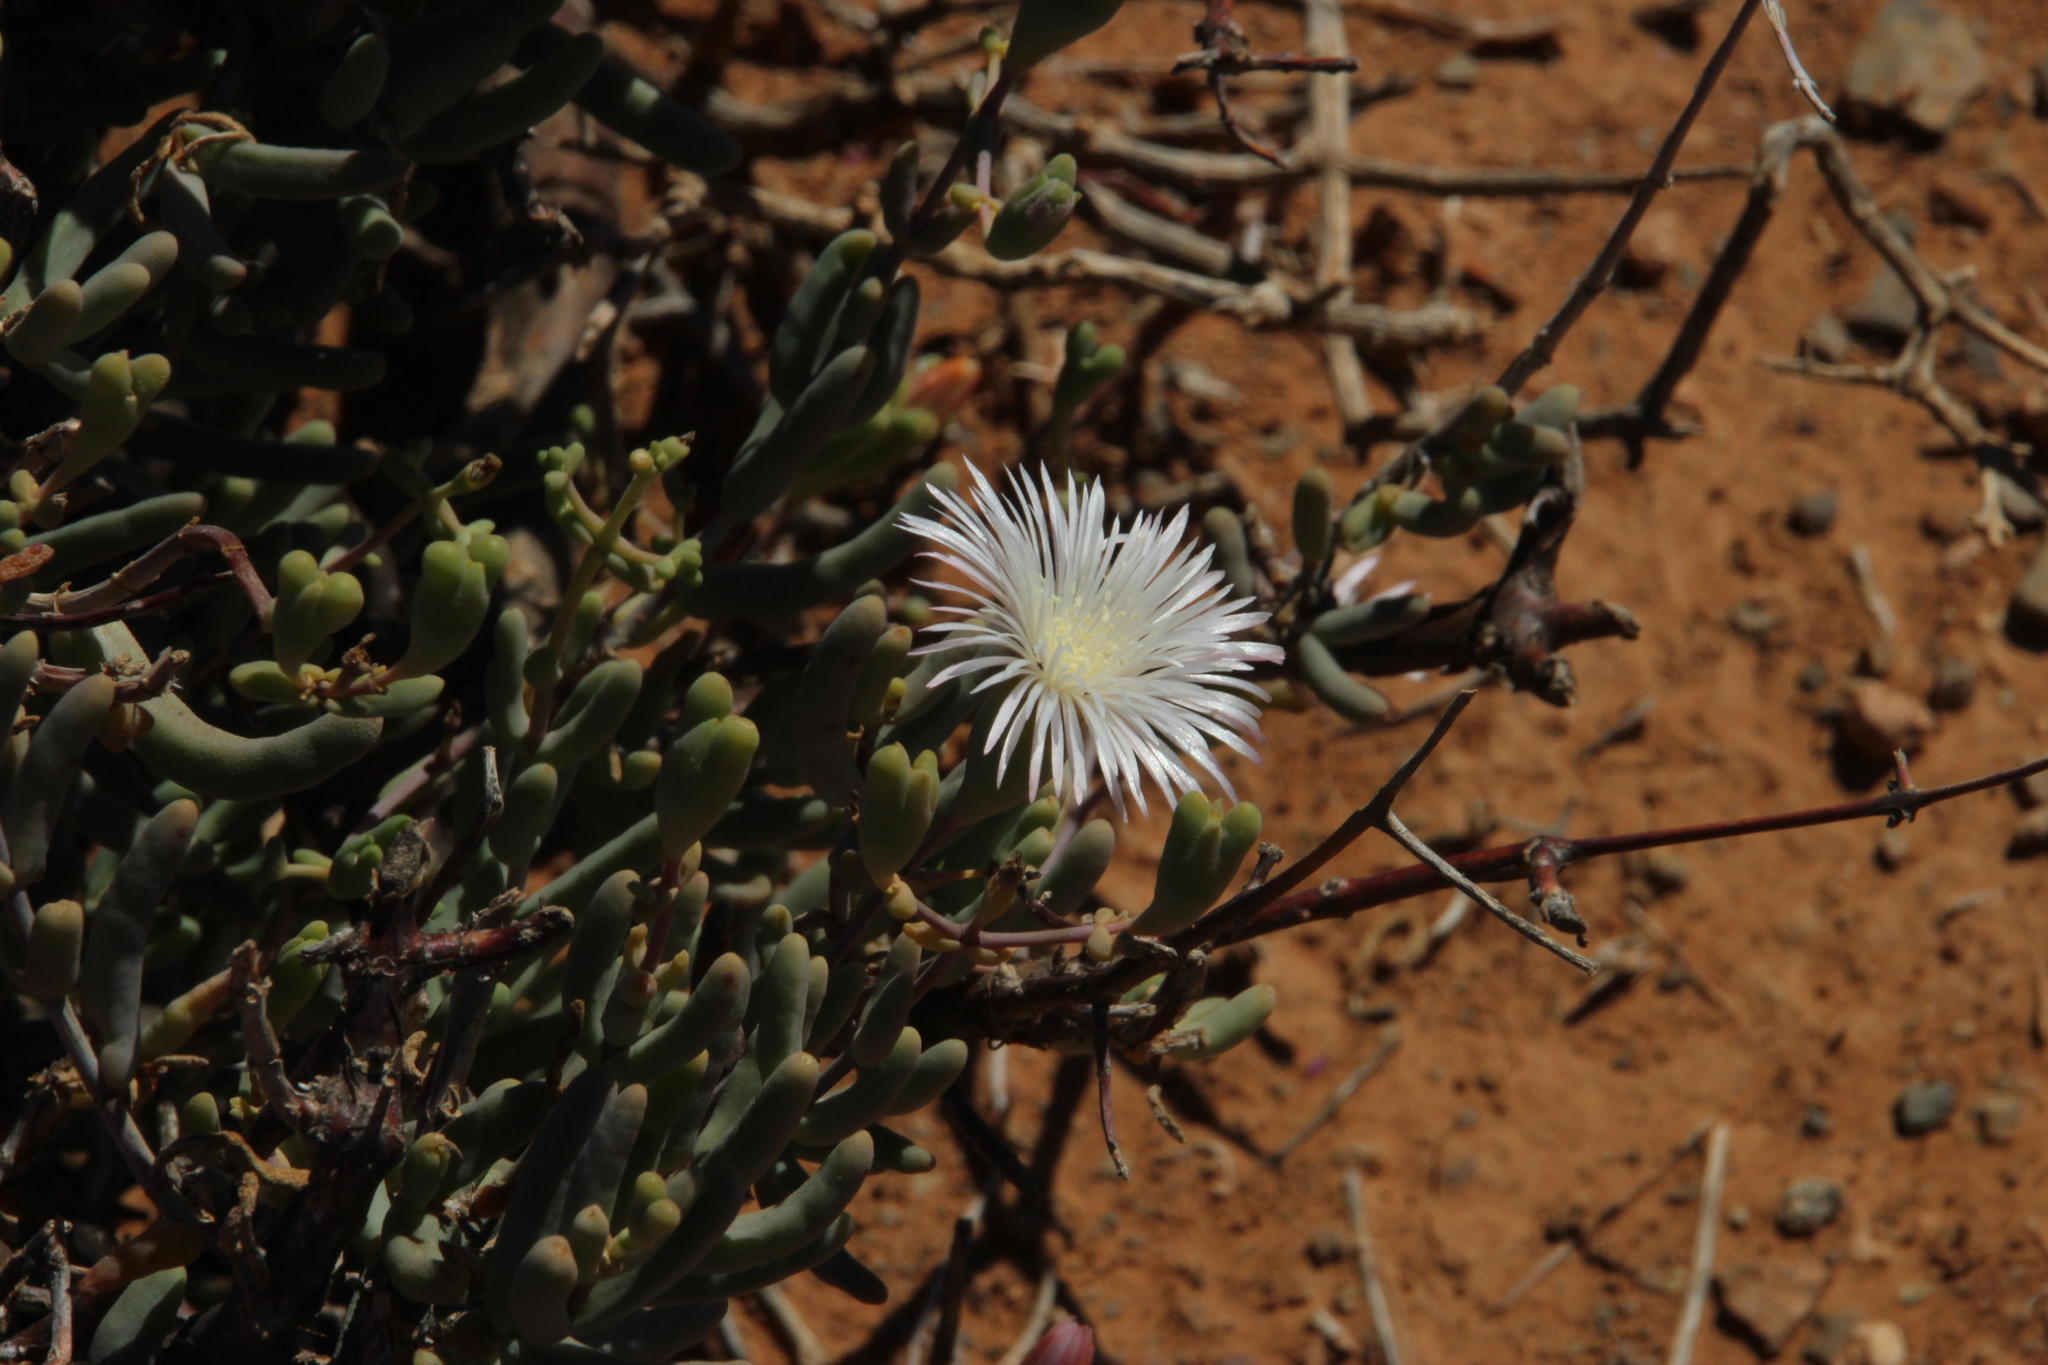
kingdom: Plantae
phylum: Tracheophyta
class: Magnoliopsida
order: Caryophyllales
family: Aizoaceae
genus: Mesembryanthemum
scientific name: Mesembryanthemum noctiflorum
